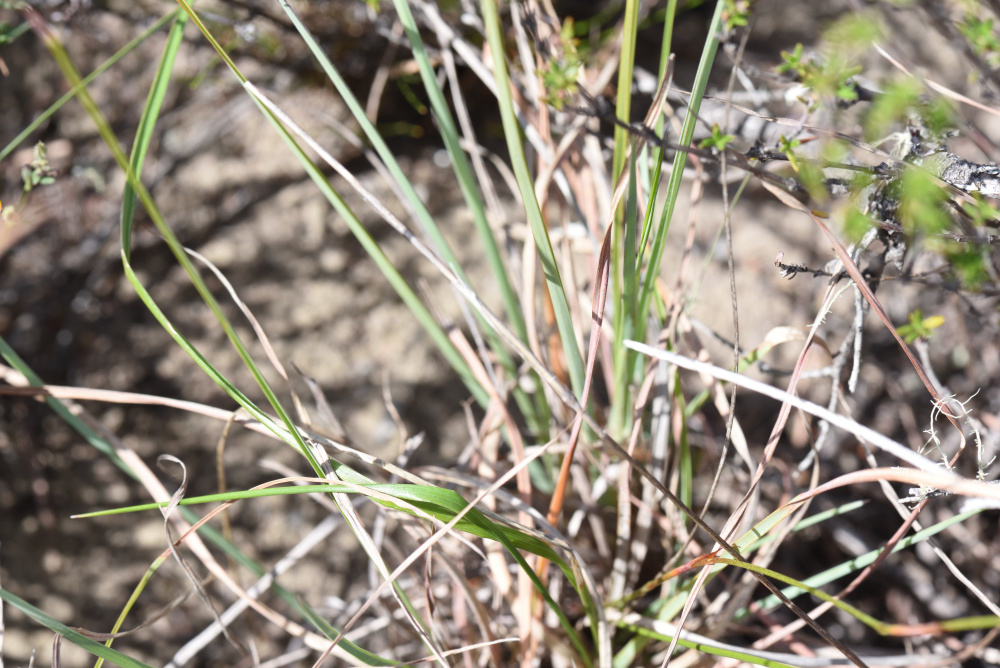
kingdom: Plantae
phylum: Tracheophyta
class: Liliopsida
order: Asparagales
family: Iridaceae
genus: Moraea
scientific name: Moraea algoensis
